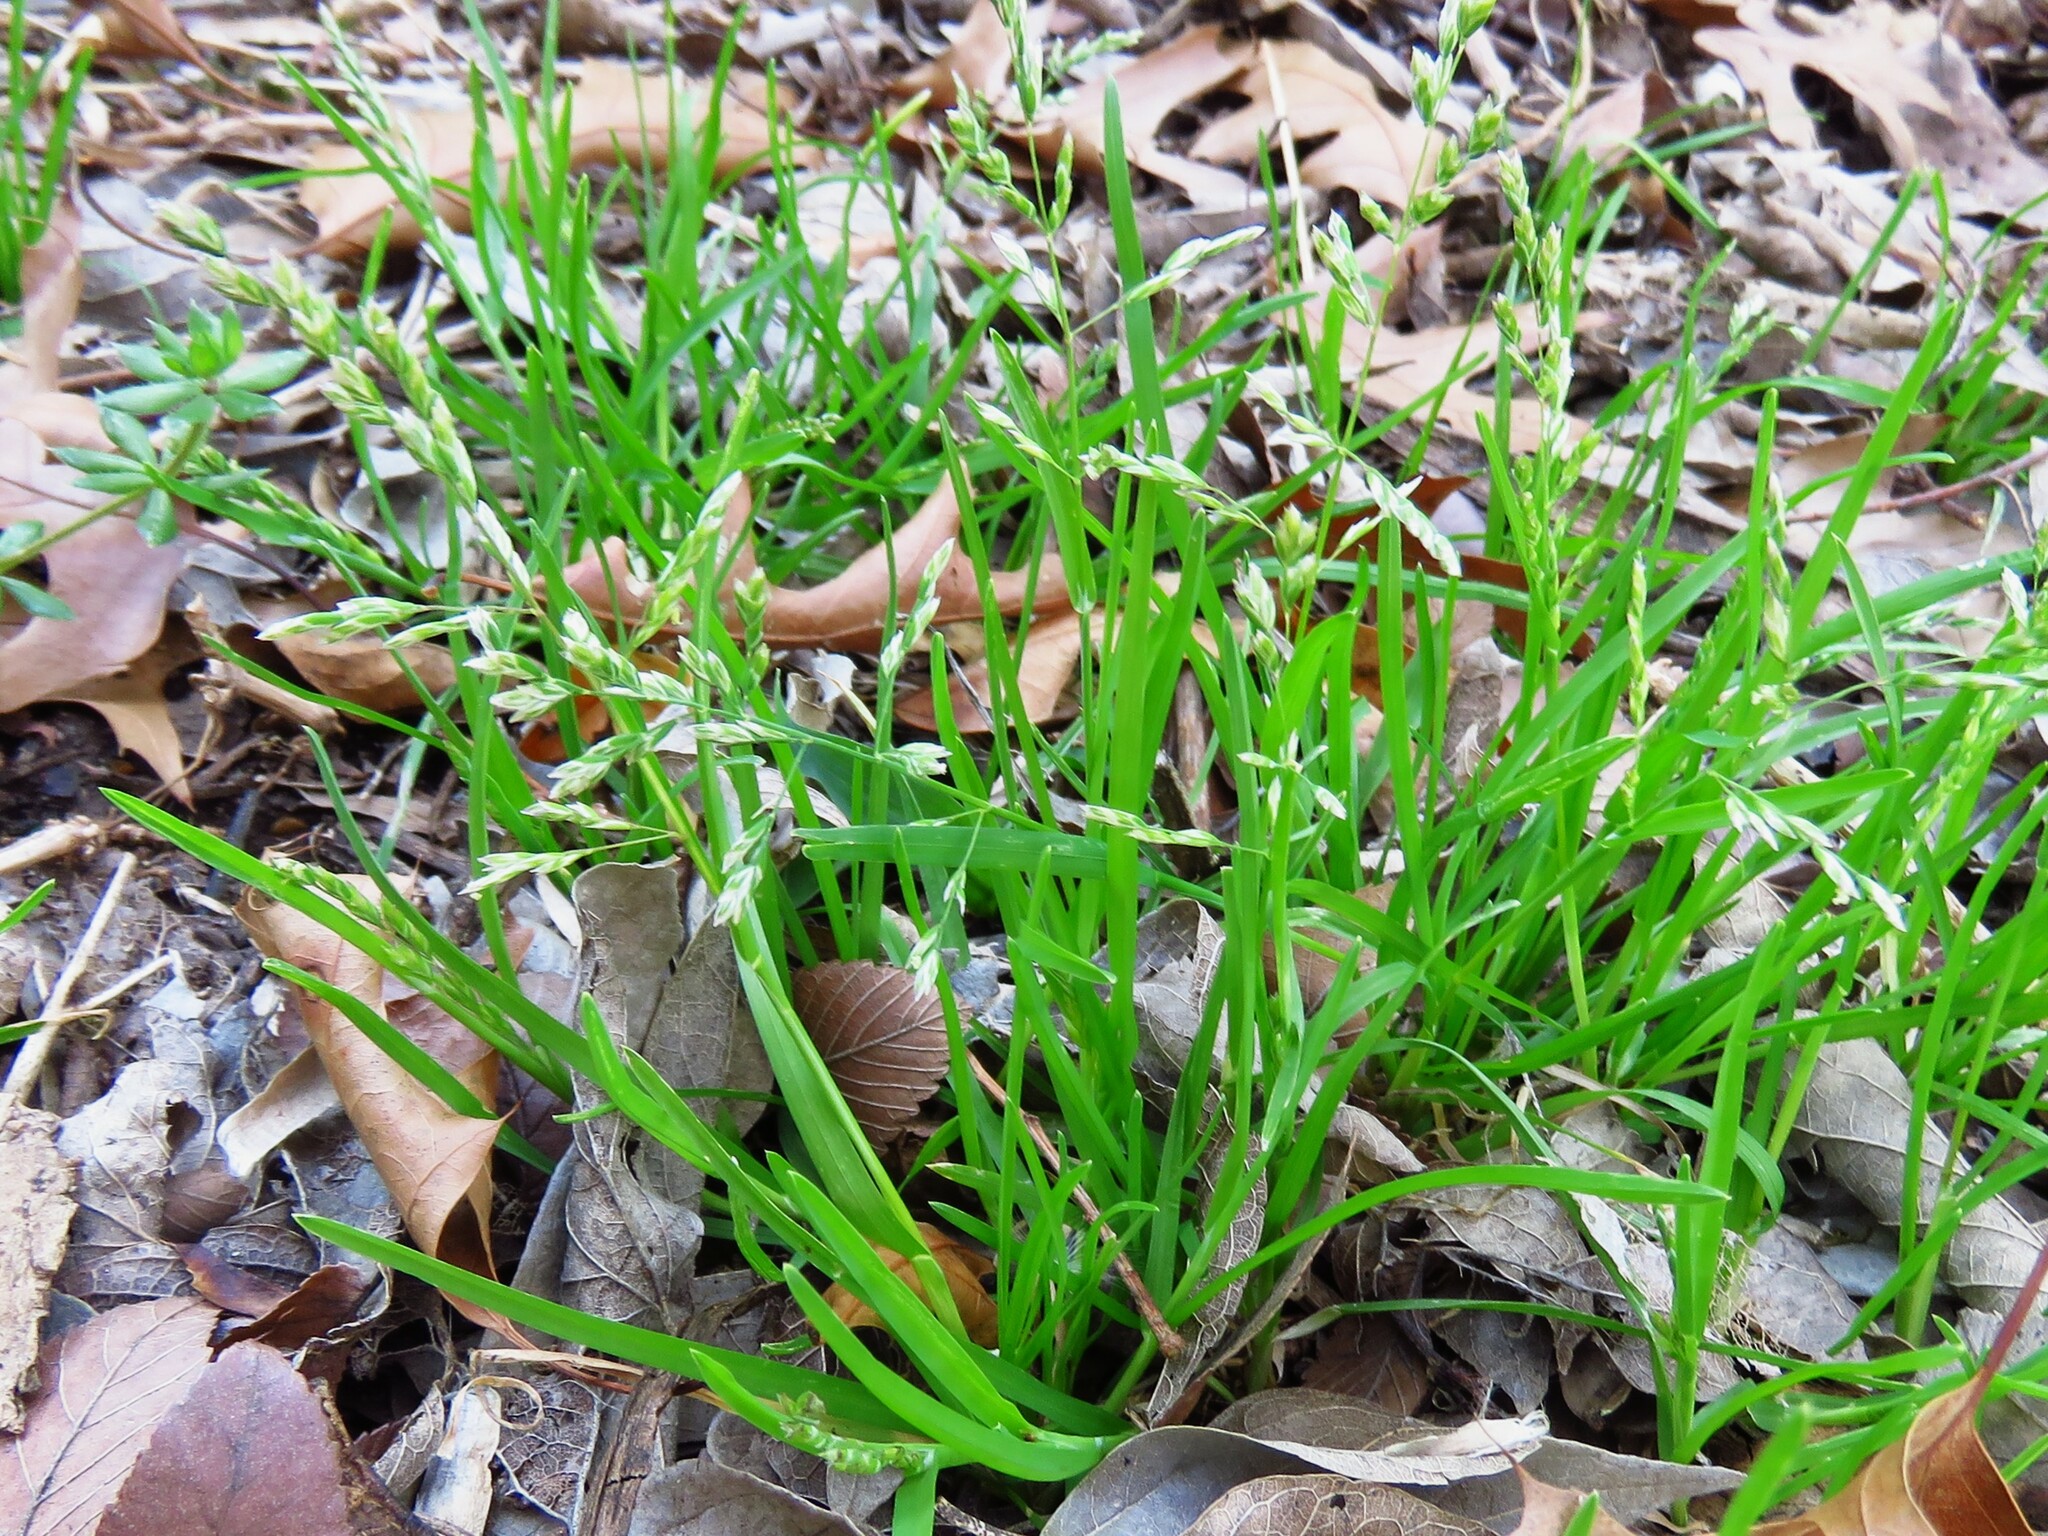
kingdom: Plantae
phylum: Tracheophyta
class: Liliopsida
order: Poales
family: Poaceae
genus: Poa
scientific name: Poa annua
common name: Annual bluegrass
